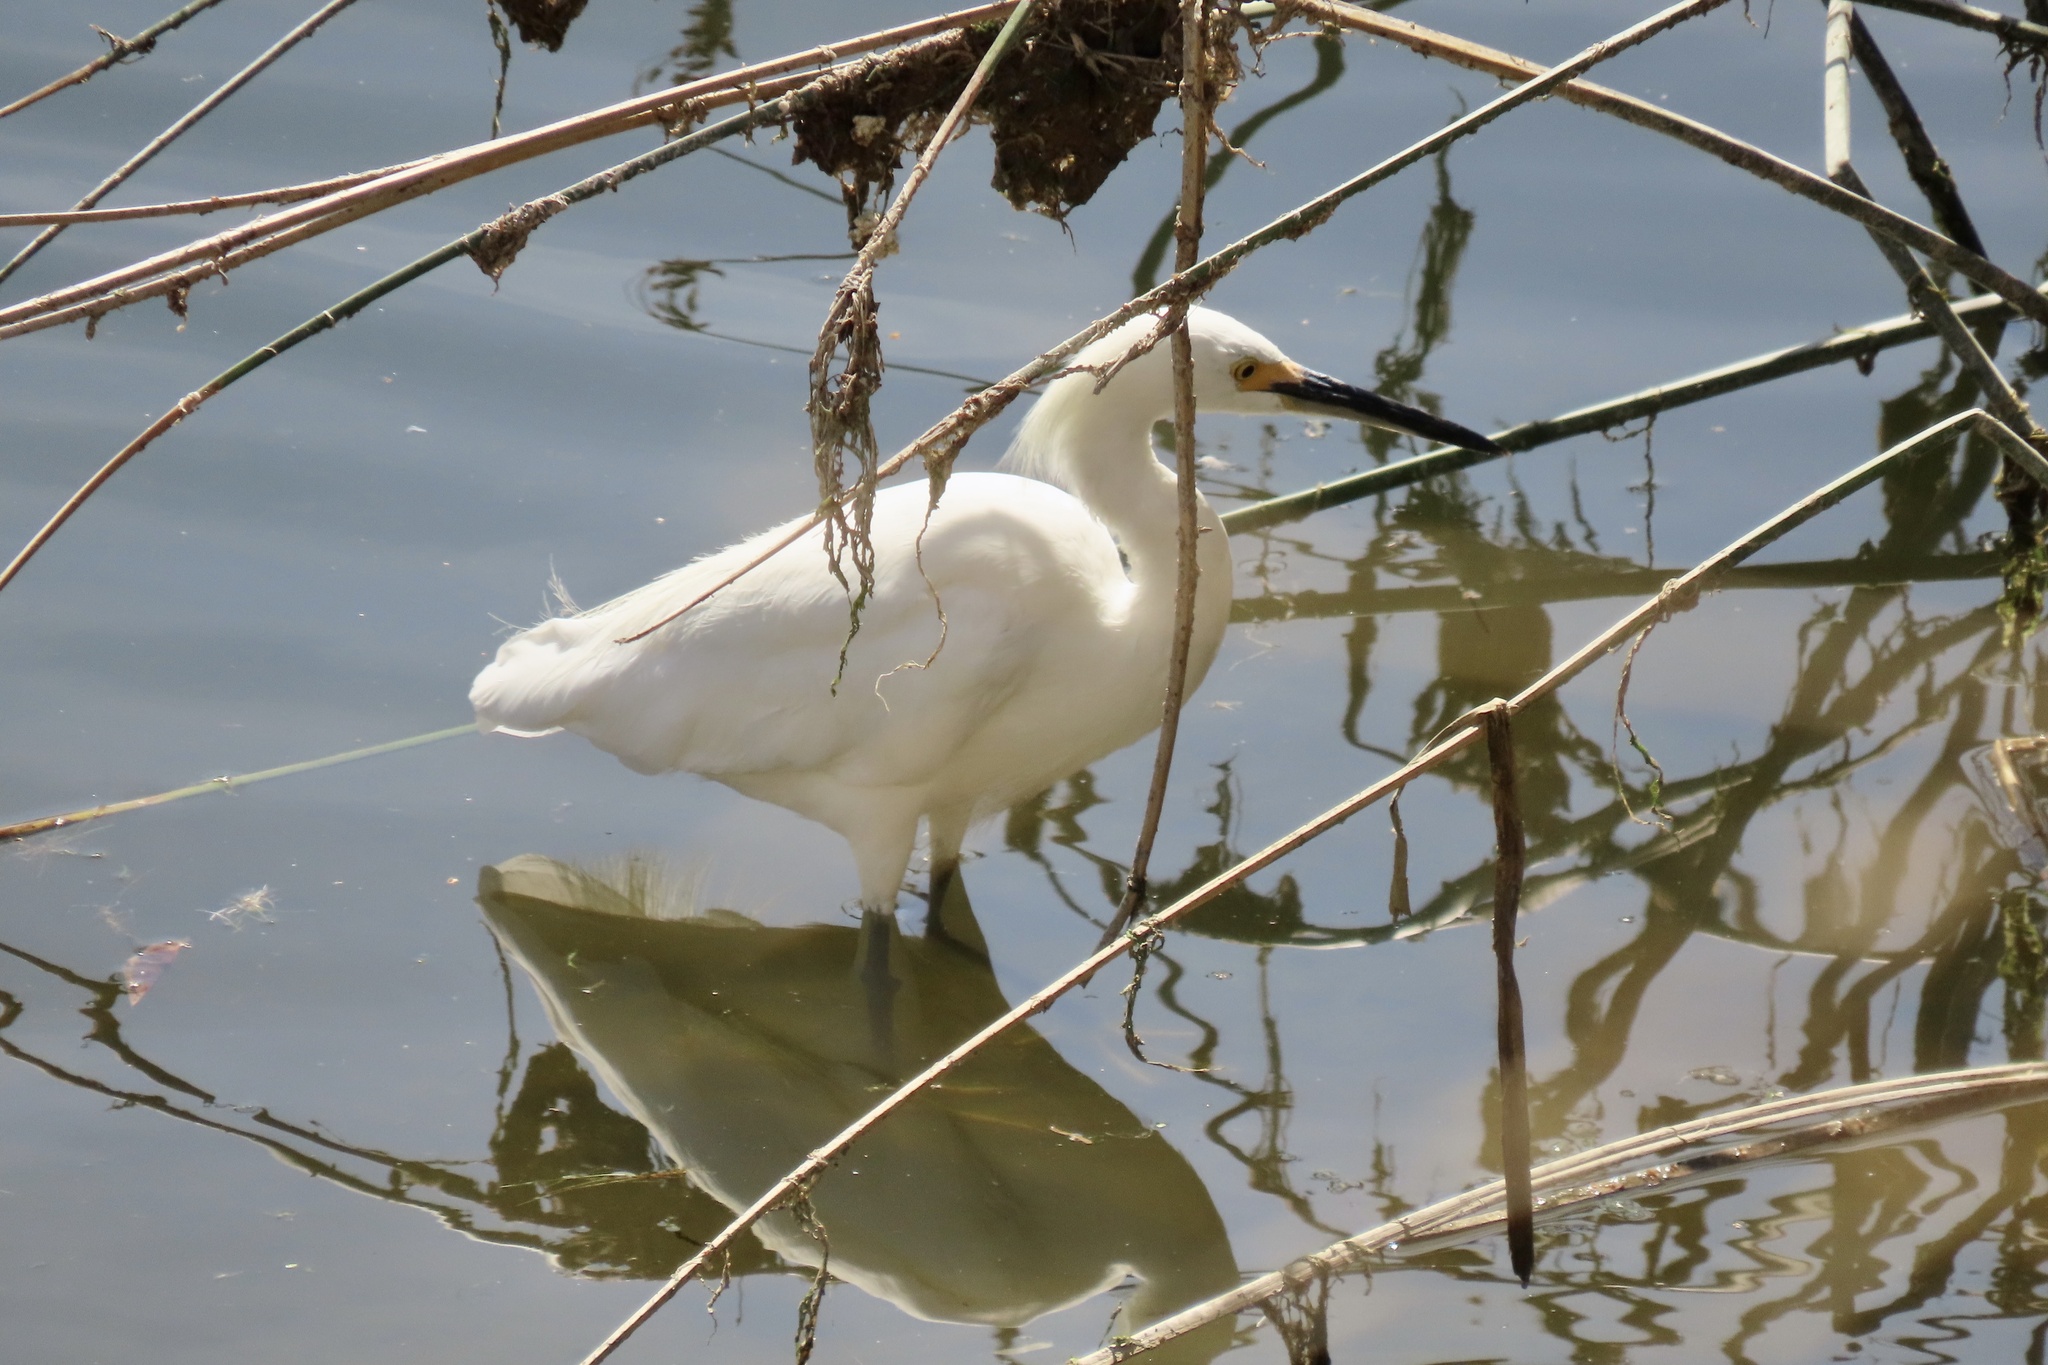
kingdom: Animalia
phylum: Chordata
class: Aves
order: Pelecaniformes
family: Ardeidae
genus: Egretta
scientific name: Egretta thula
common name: Snowy egret
